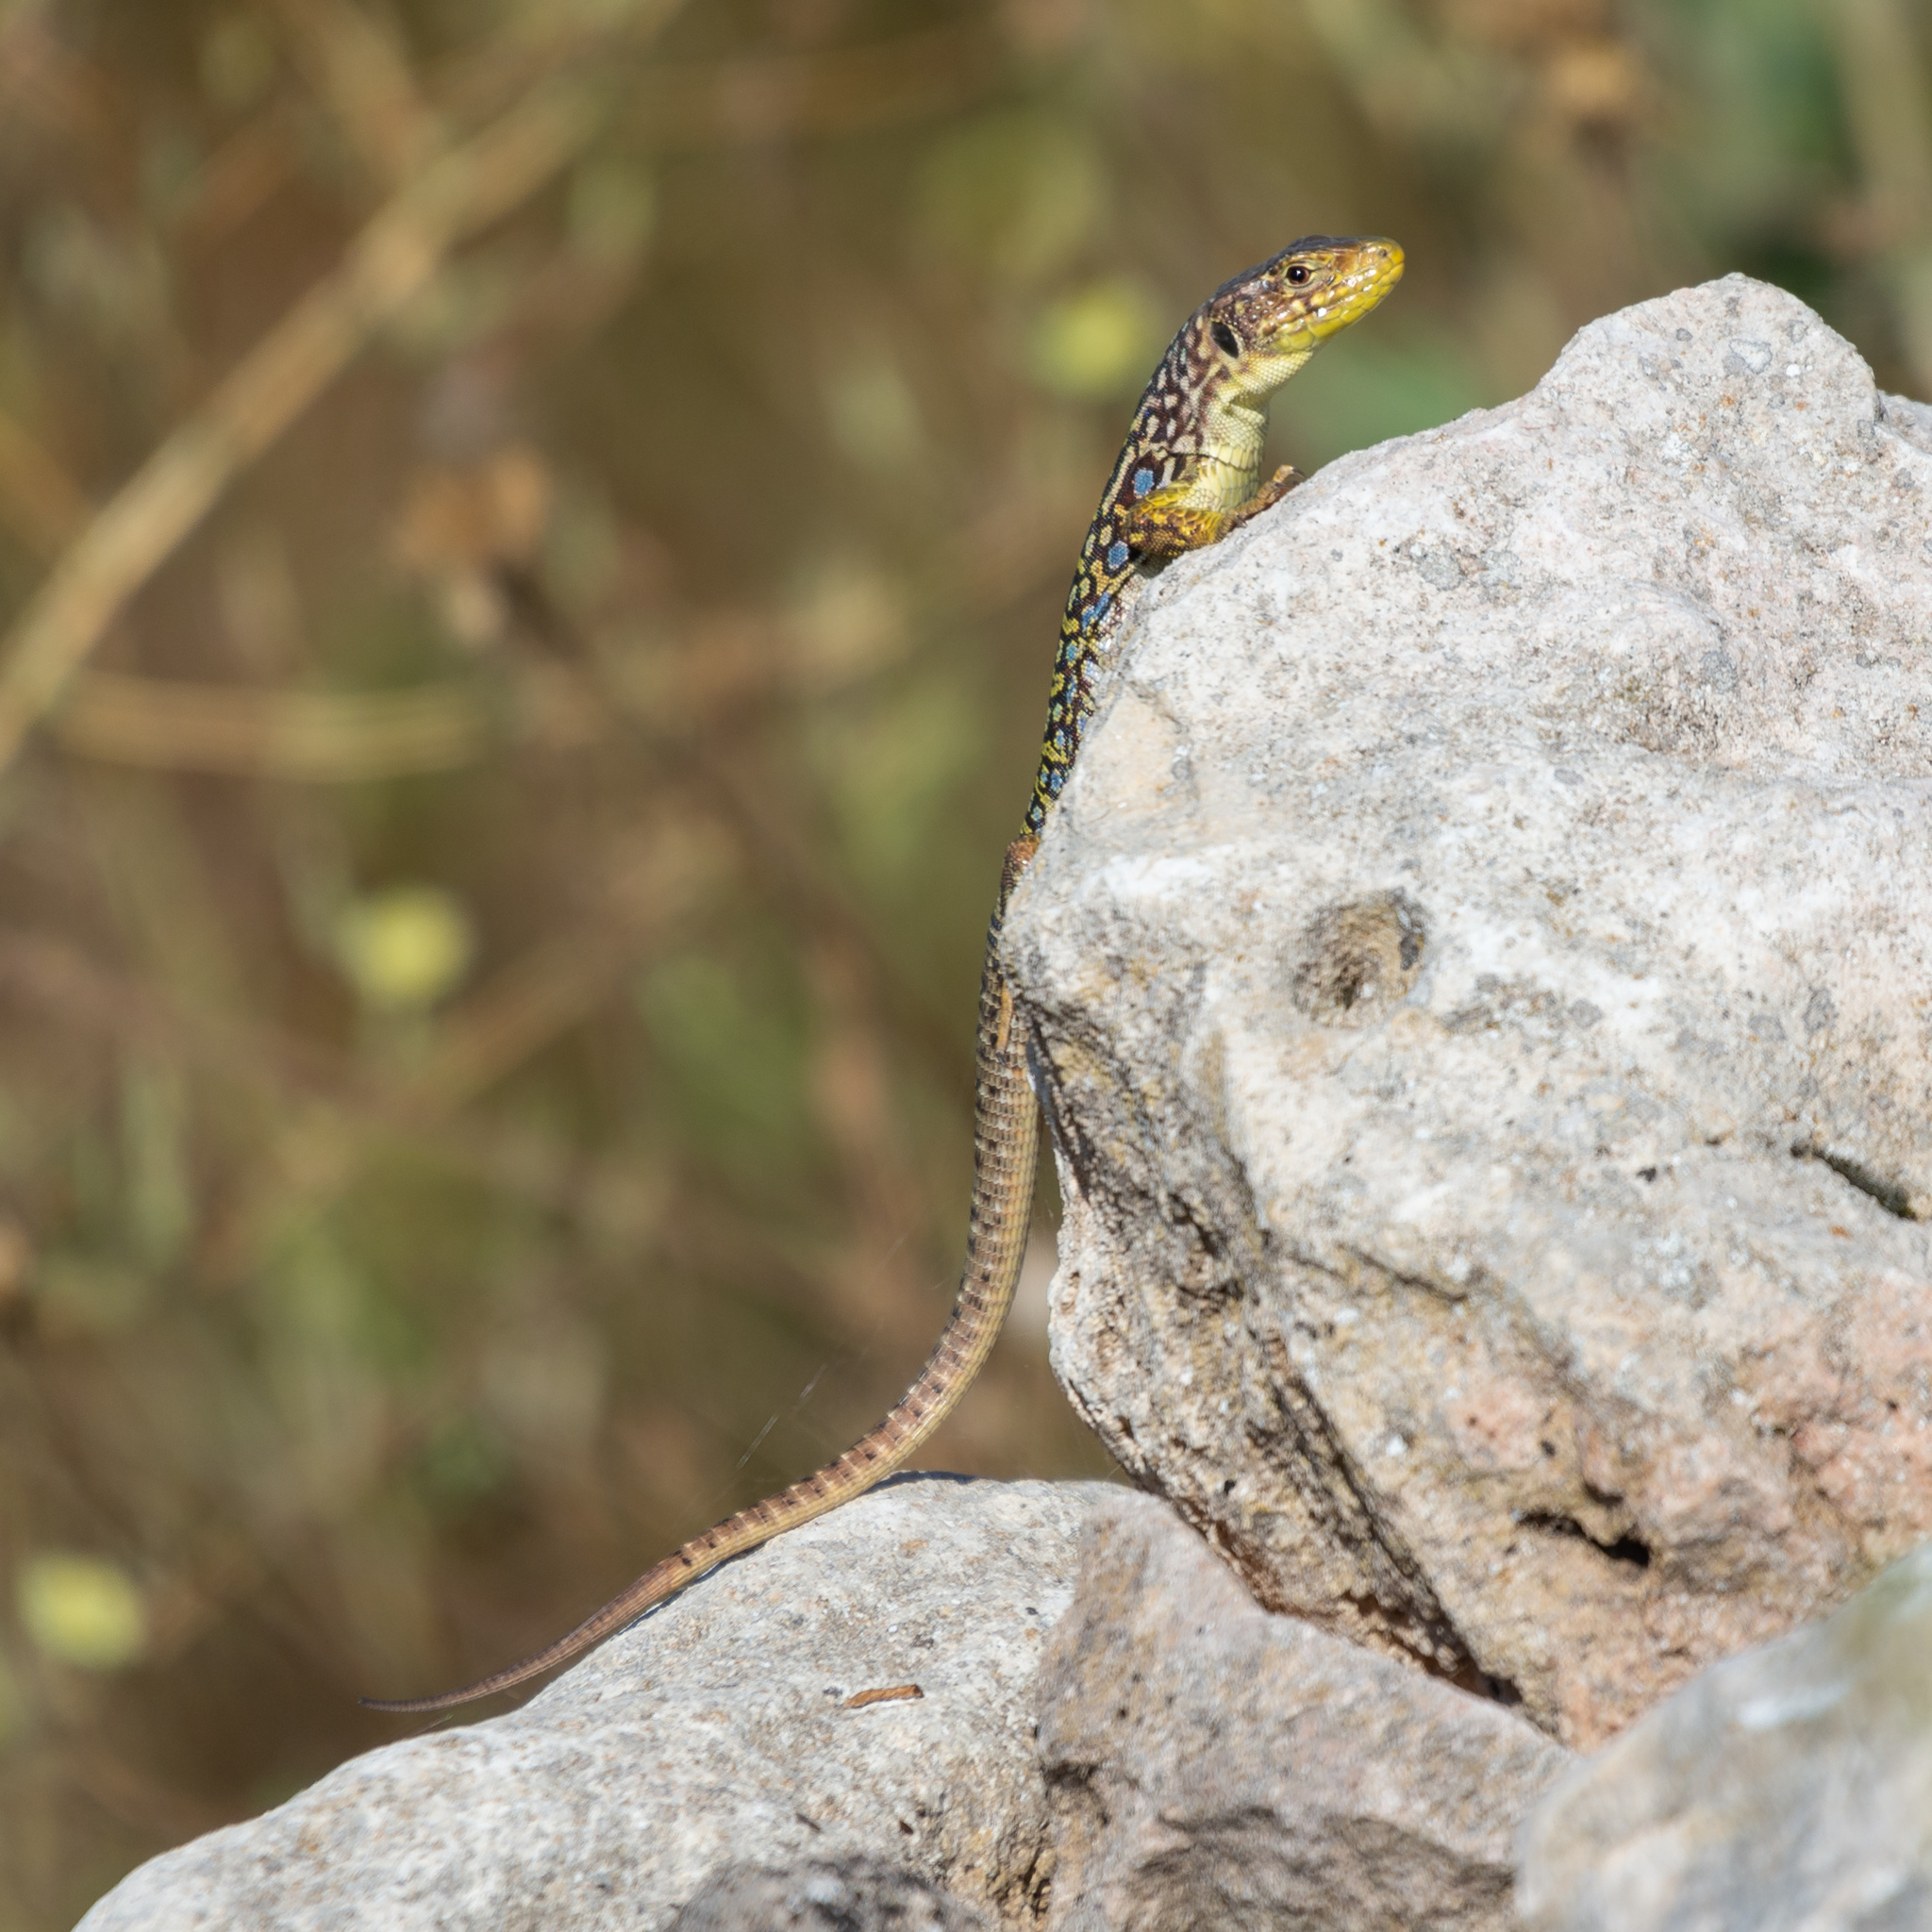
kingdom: Animalia
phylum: Chordata
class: Squamata
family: Lacertidae
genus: Timon
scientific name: Timon lepidus
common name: Ocellated lizard
